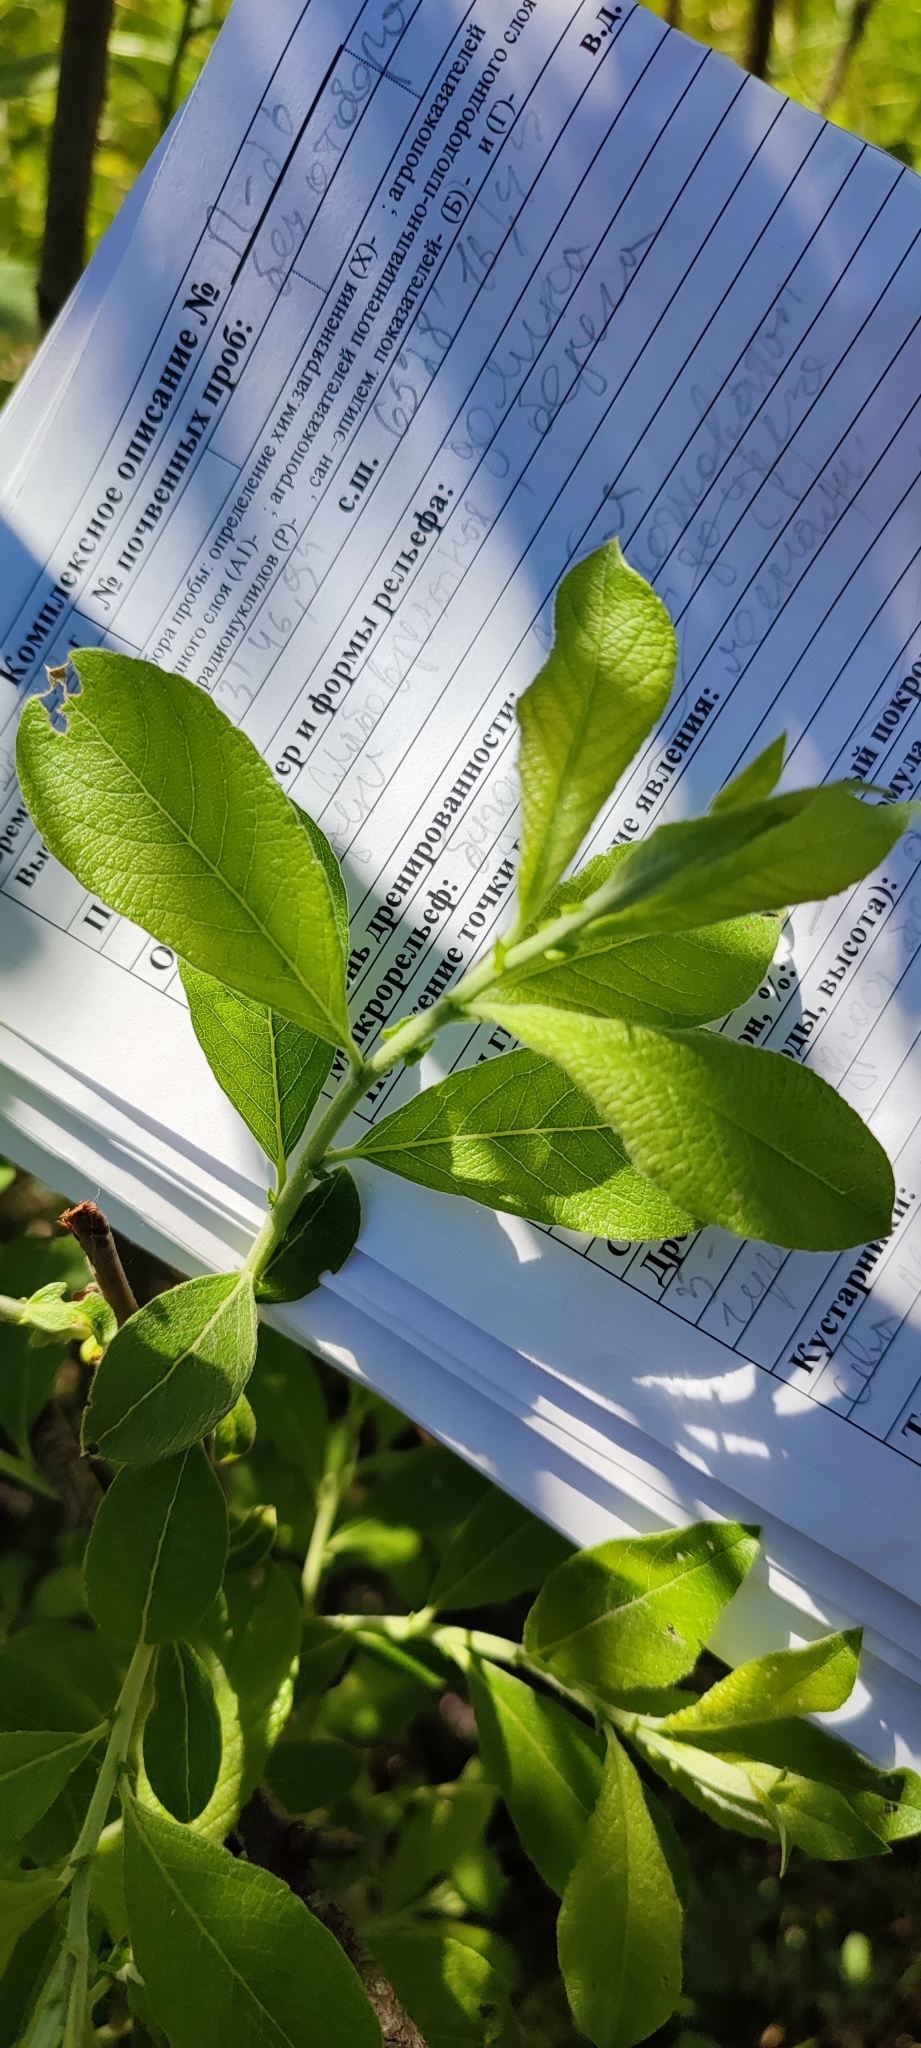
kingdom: Plantae
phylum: Tracheophyta
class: Magnoliopsida
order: Malpighiales
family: Salicaceae
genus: Salix
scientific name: Salix cinerea
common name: Common sallow
